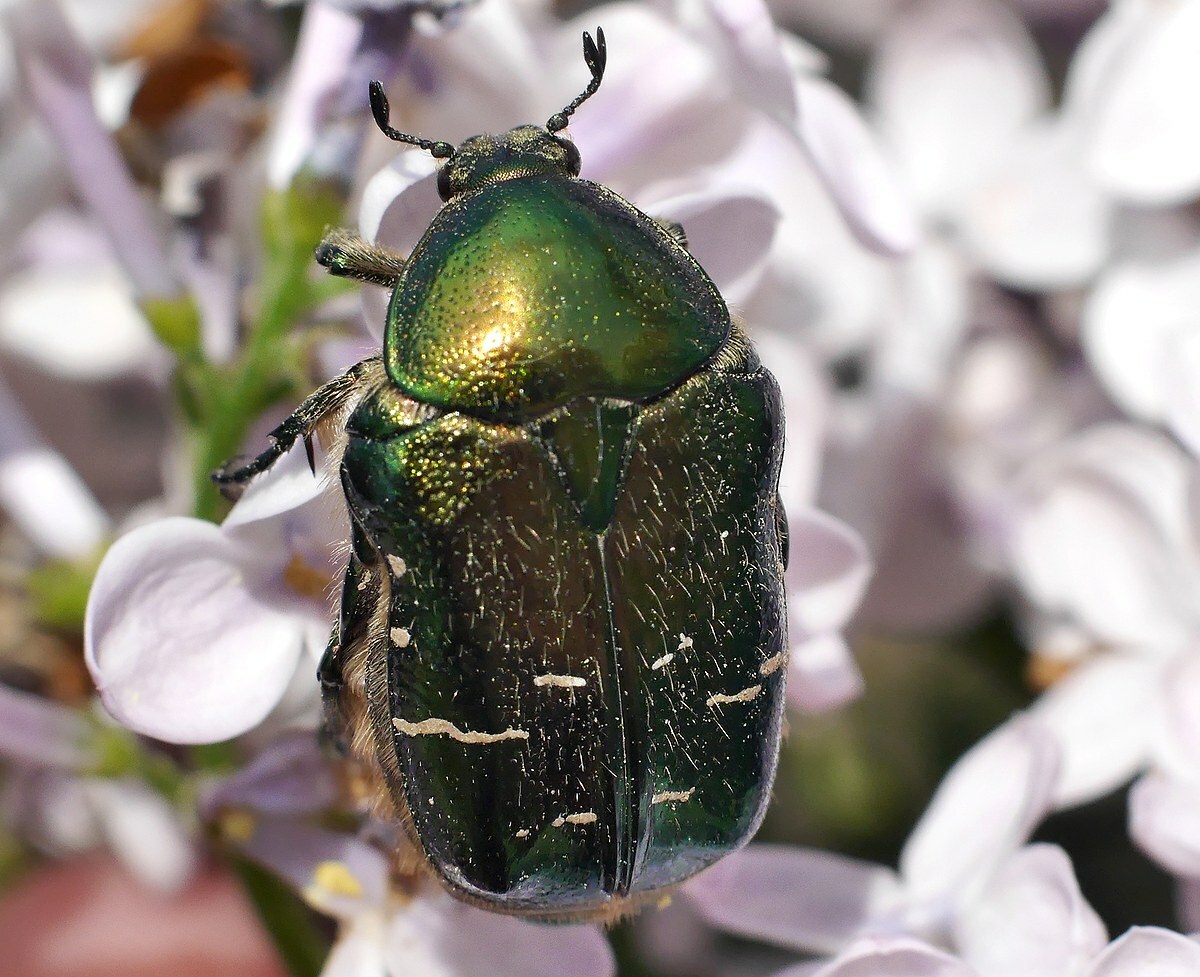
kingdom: Animalia
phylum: Arthropoda
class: Insecta
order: Coleoptera
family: Scarabaeidae
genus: Cetonia
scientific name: Cetonia aurata
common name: Rose chafer
